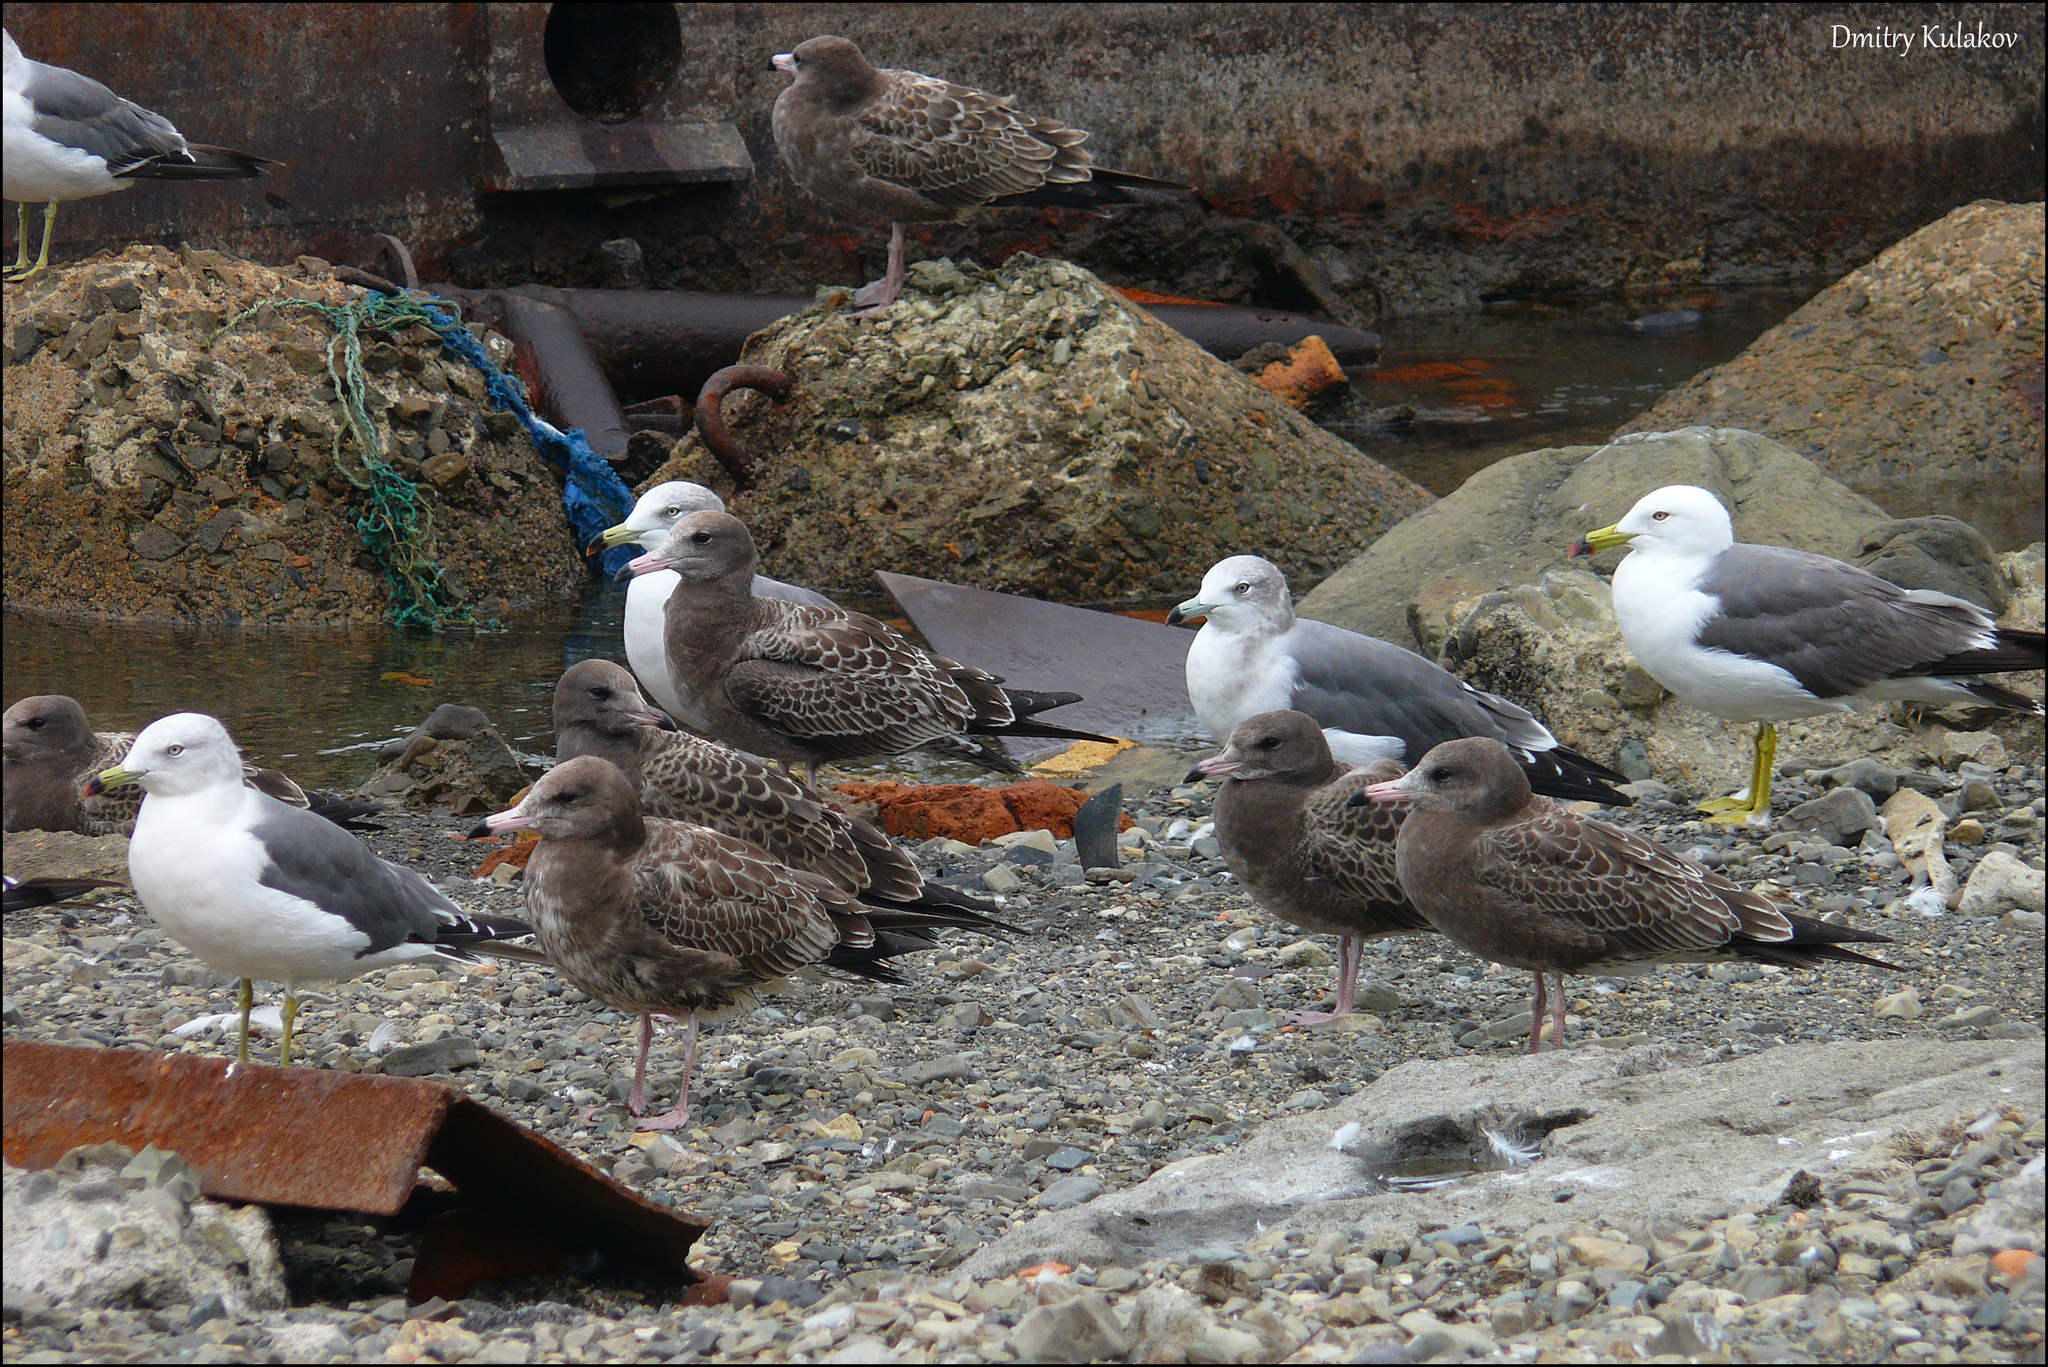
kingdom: Animalia
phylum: Chordata
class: Aves
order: Charadriiformes
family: Laridae
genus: Larus
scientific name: Larus crassirostris
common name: Black-tailed gull
